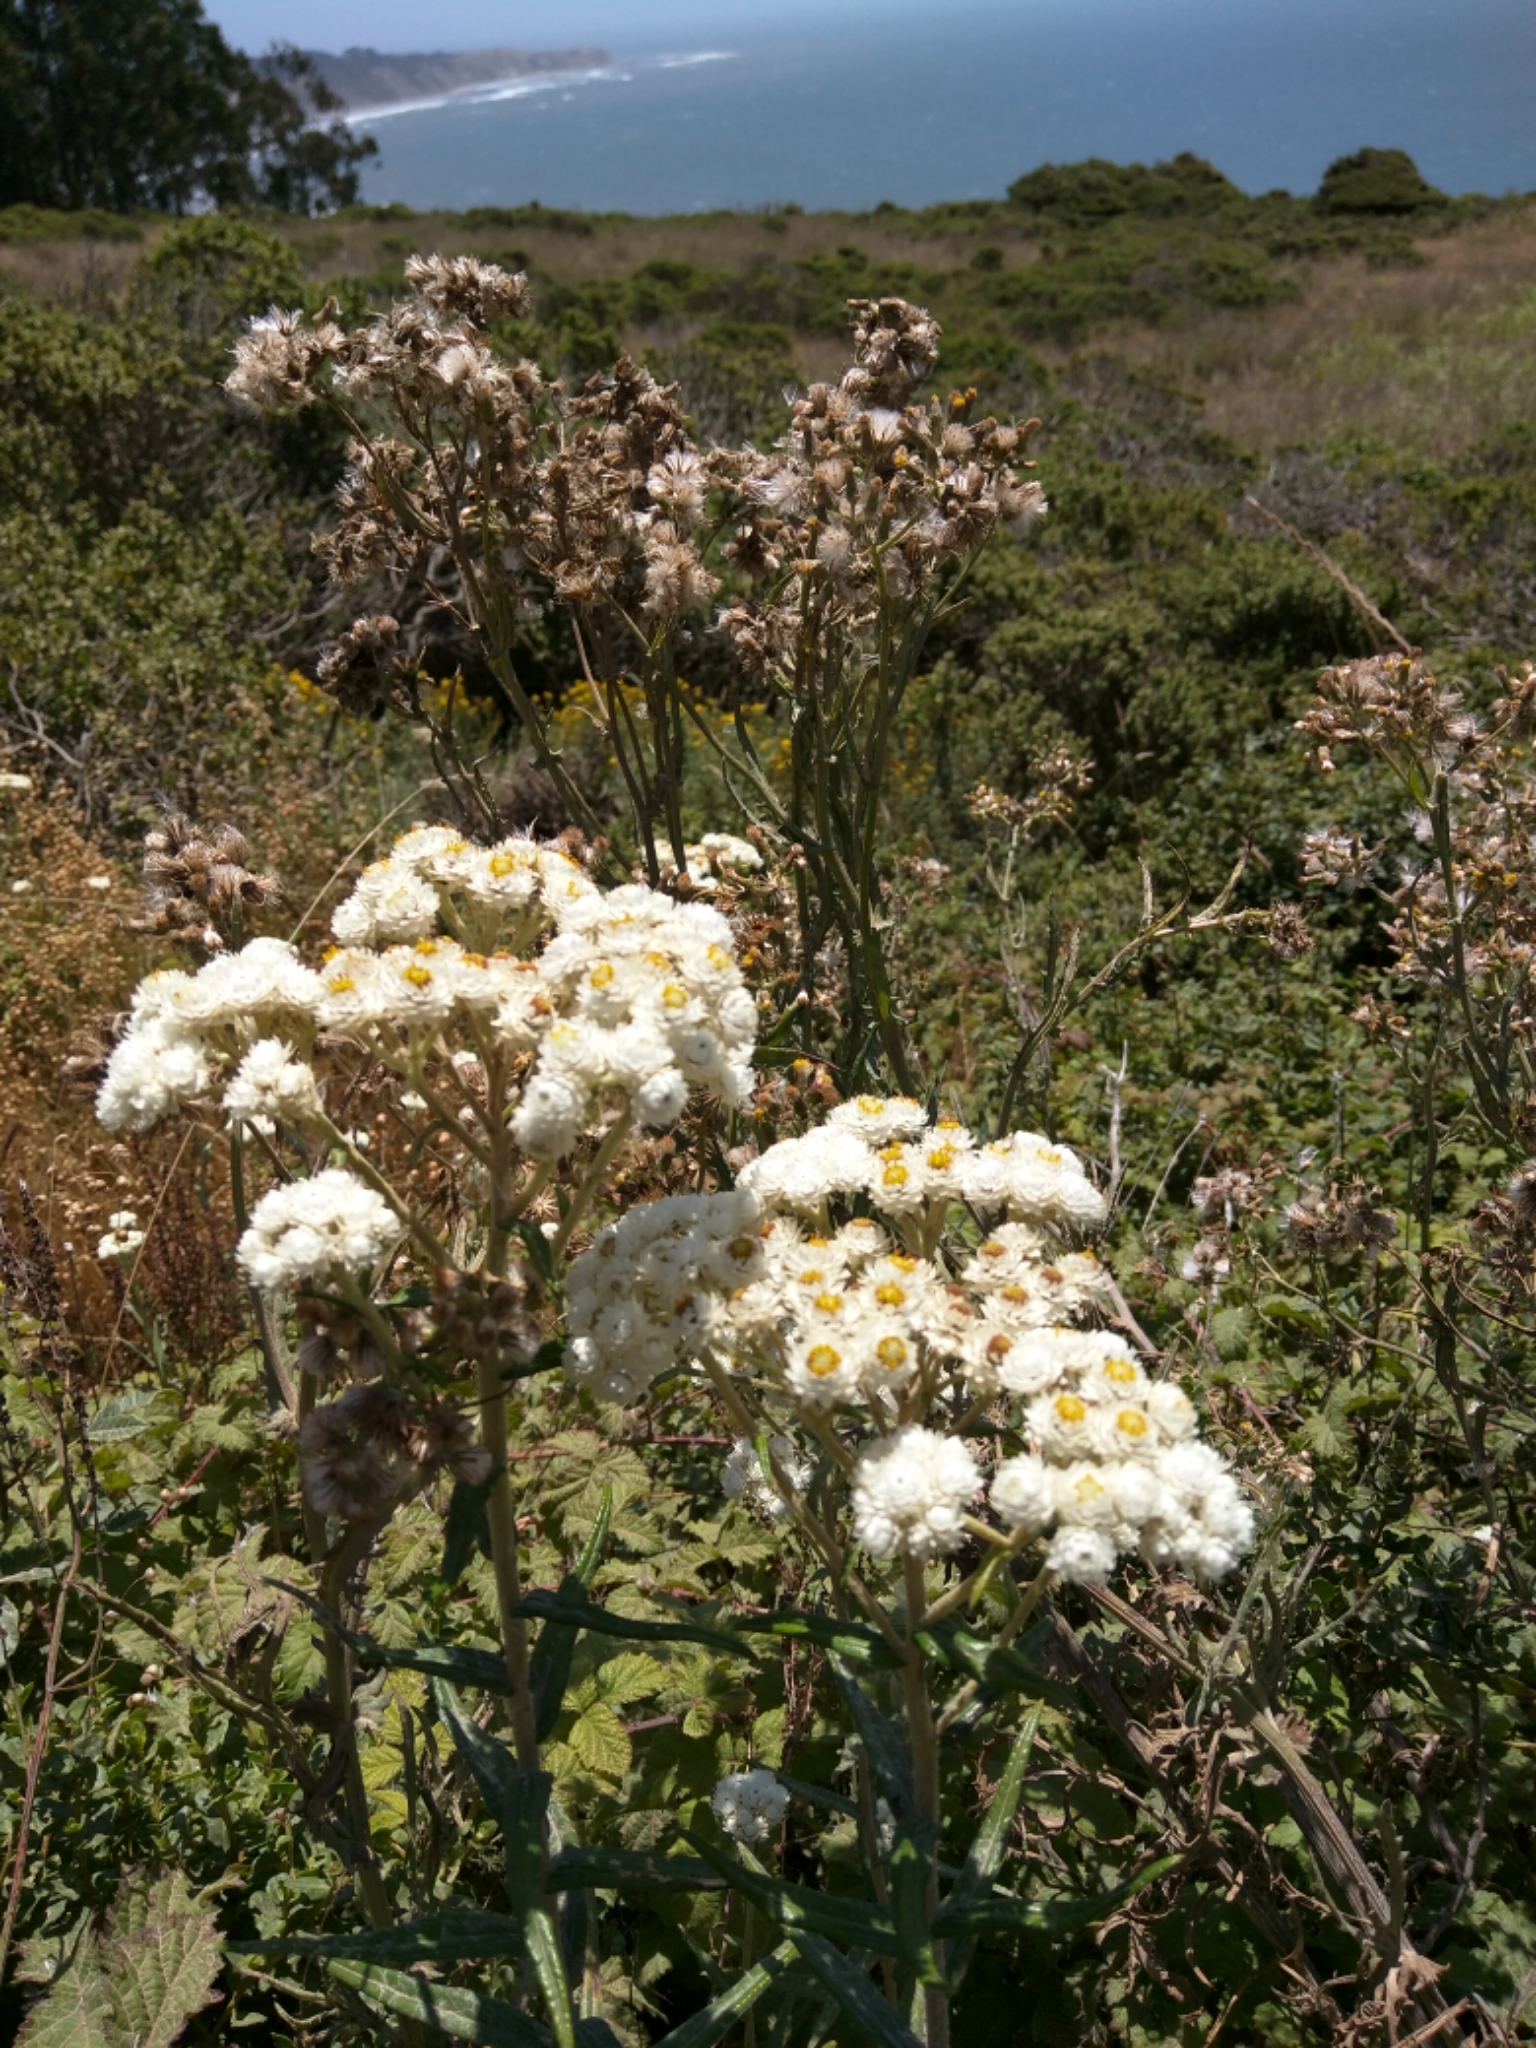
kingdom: Plantae
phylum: Tracheophyta
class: Magnoliopsida
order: Asterales
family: Asteraceae
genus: Anaphalis
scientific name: Anaphalis margaritacea
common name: Pearly everlasting
